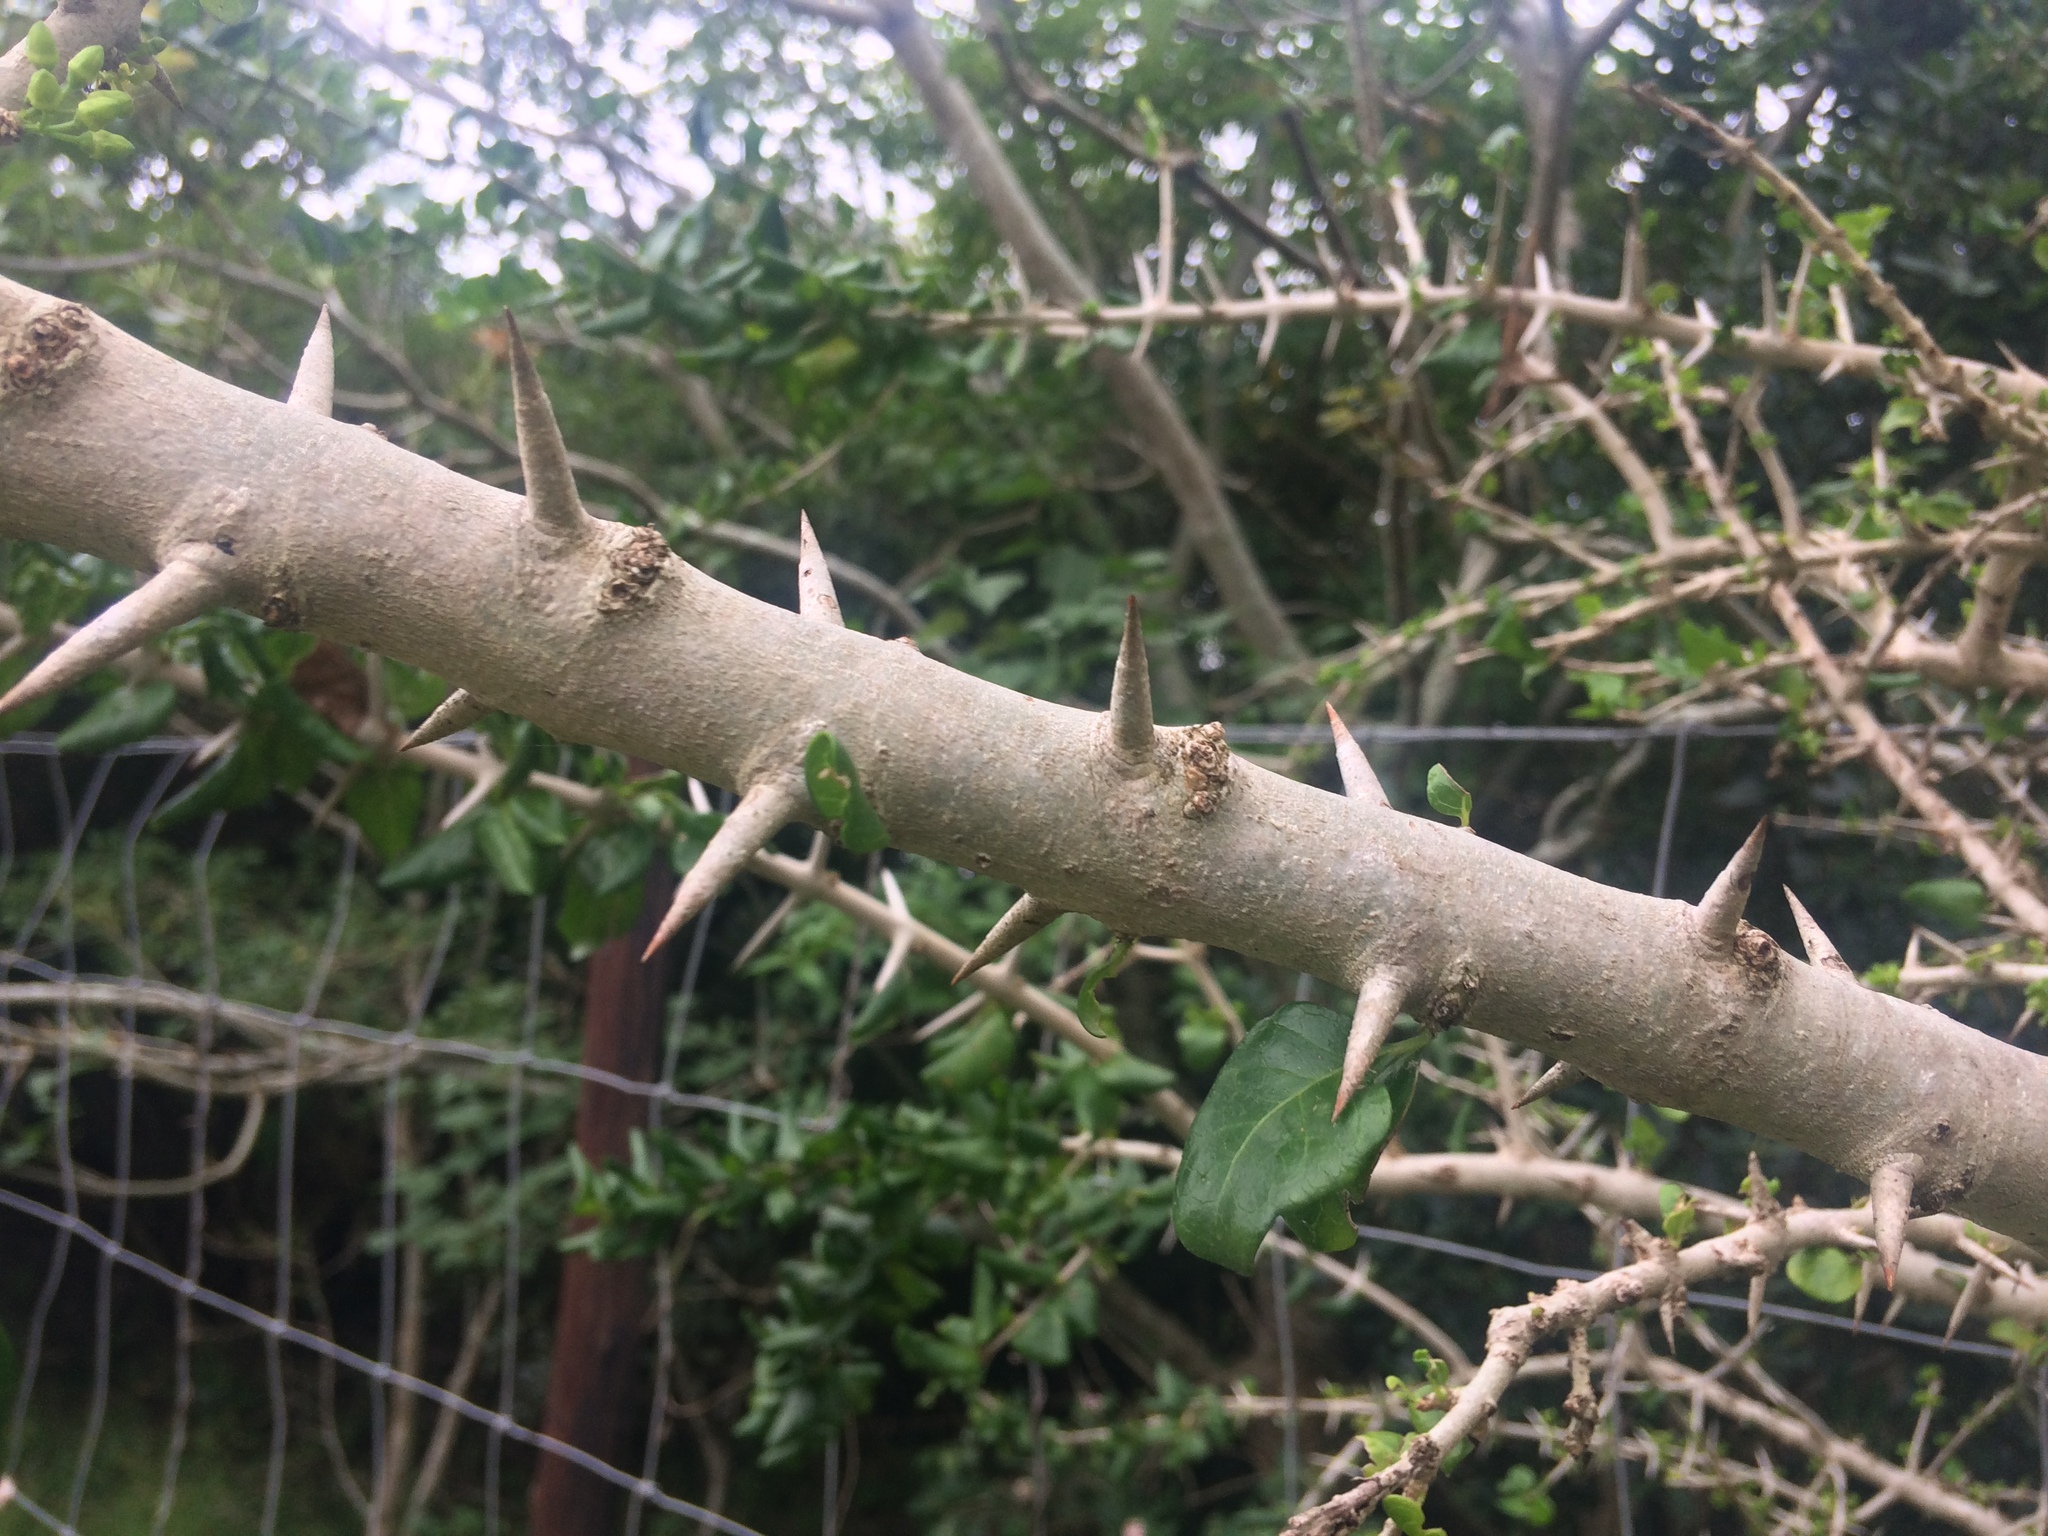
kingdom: Plantae
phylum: Tracheophyta
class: Magnoliopsida
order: Gentianales
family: Rubiaceae
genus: Catunaregam
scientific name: Catunaregam spinosa
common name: Emetic-nut
